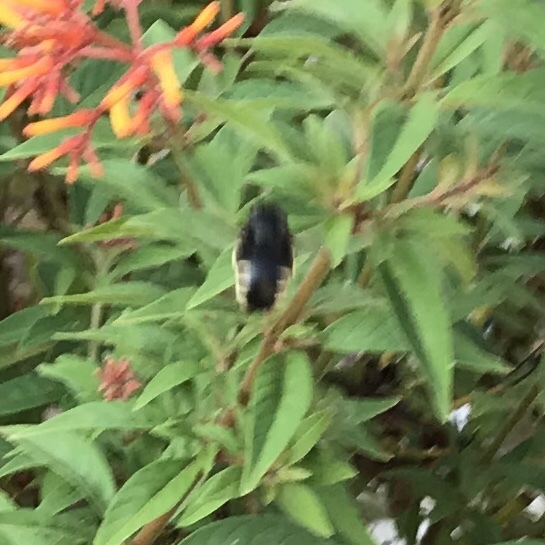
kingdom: Animalia
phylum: Arthropoda
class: Insecta
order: Hymenoptera
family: Apidae
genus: Xylocopa
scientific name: Xylocopa tabaniformis
